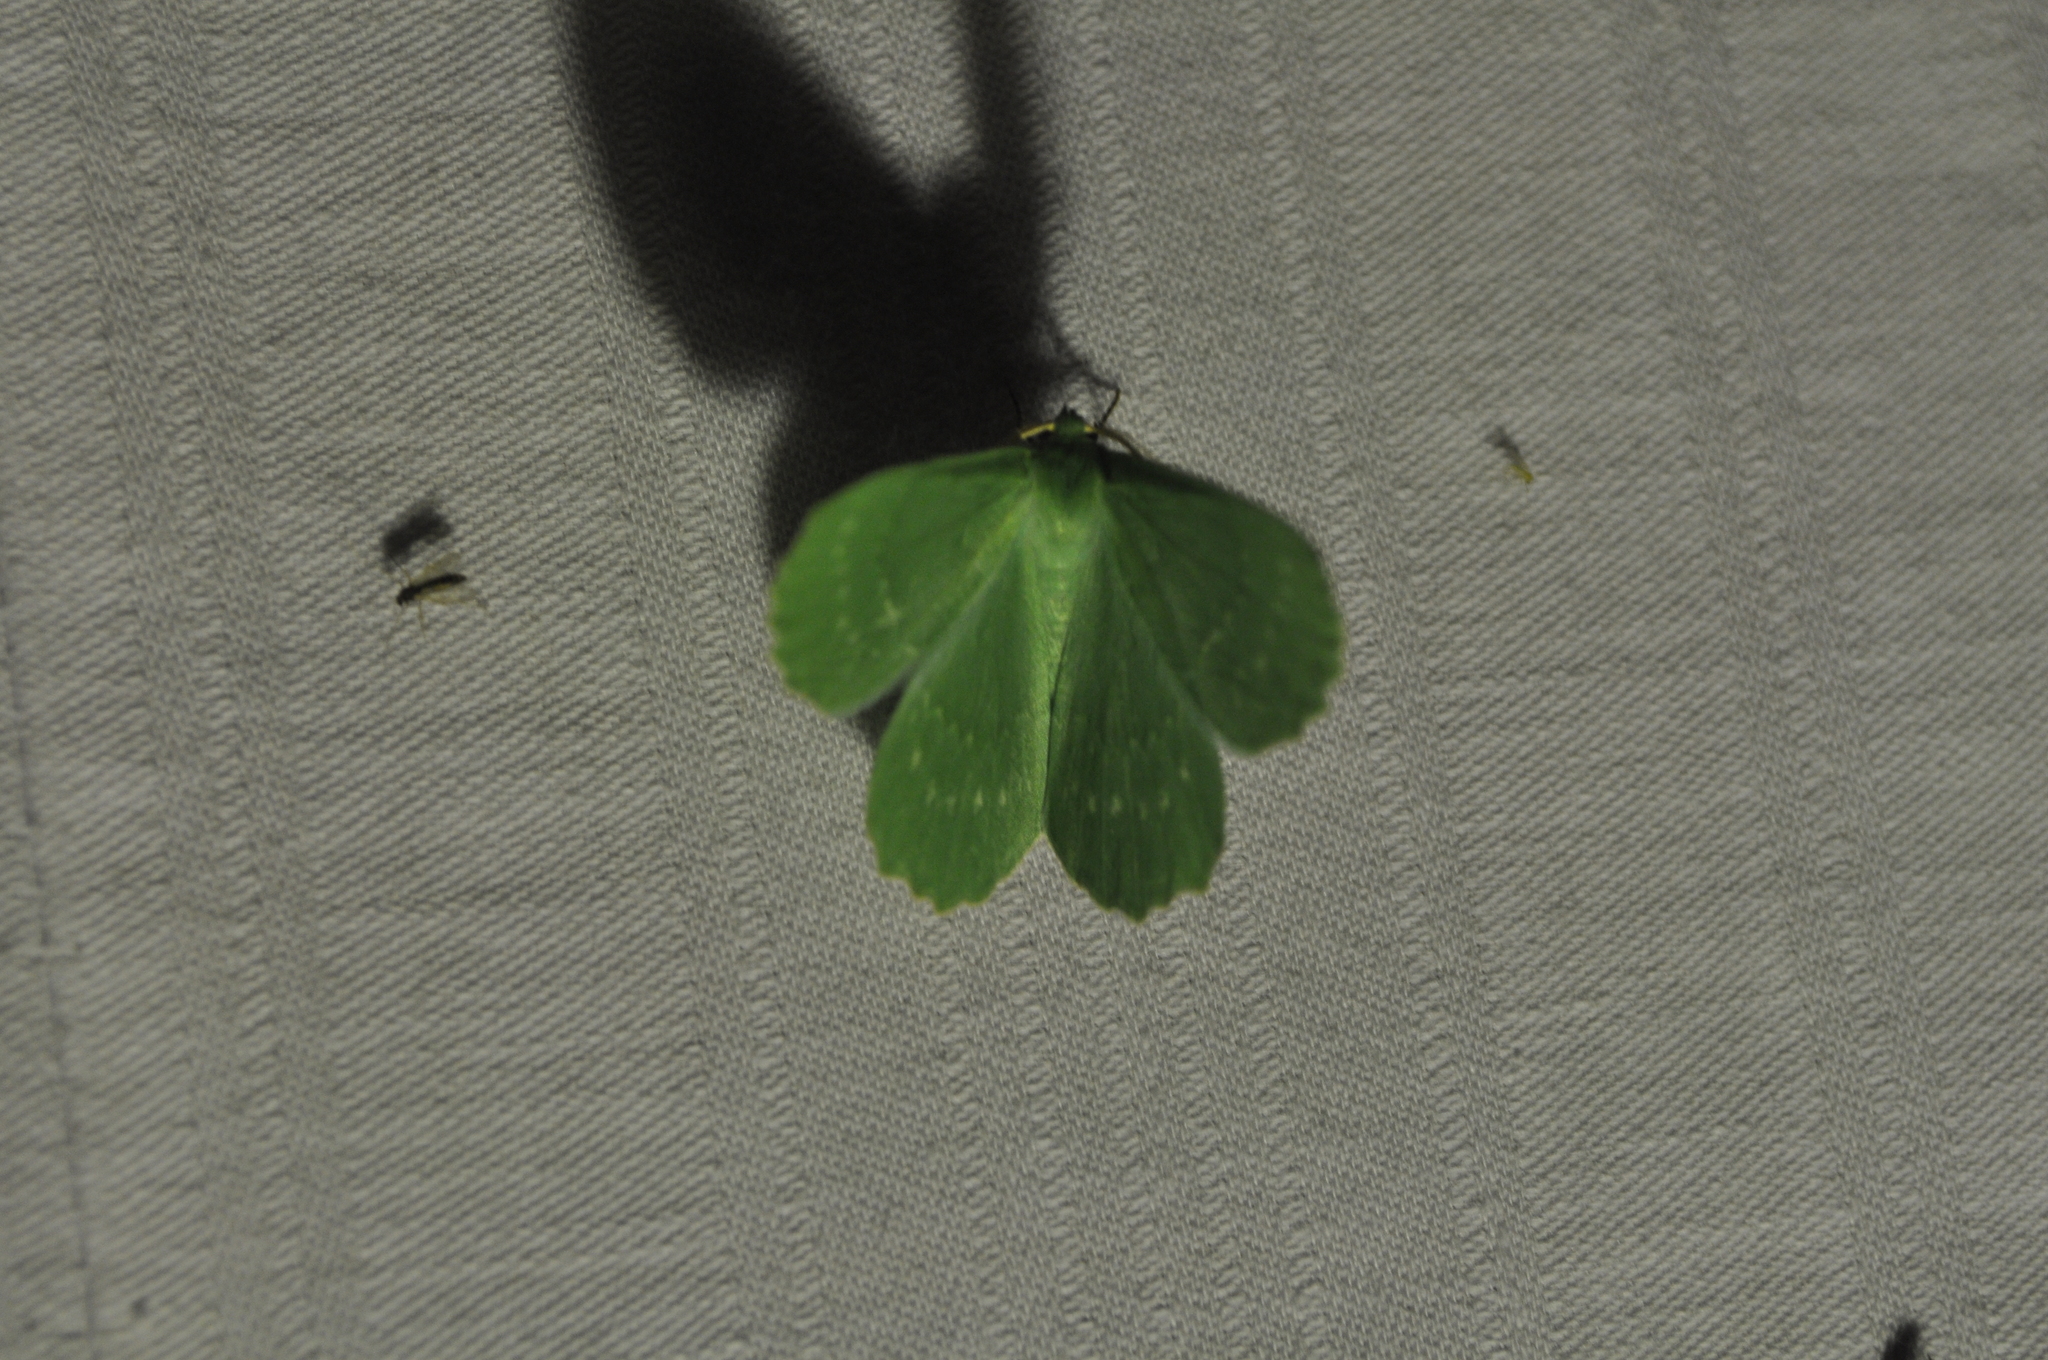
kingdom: Animalia
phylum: Arthropoda
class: Insecta
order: Lepidoptera
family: Geometridae
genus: Geometra
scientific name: Geometra papilionaria
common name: Large emerald
